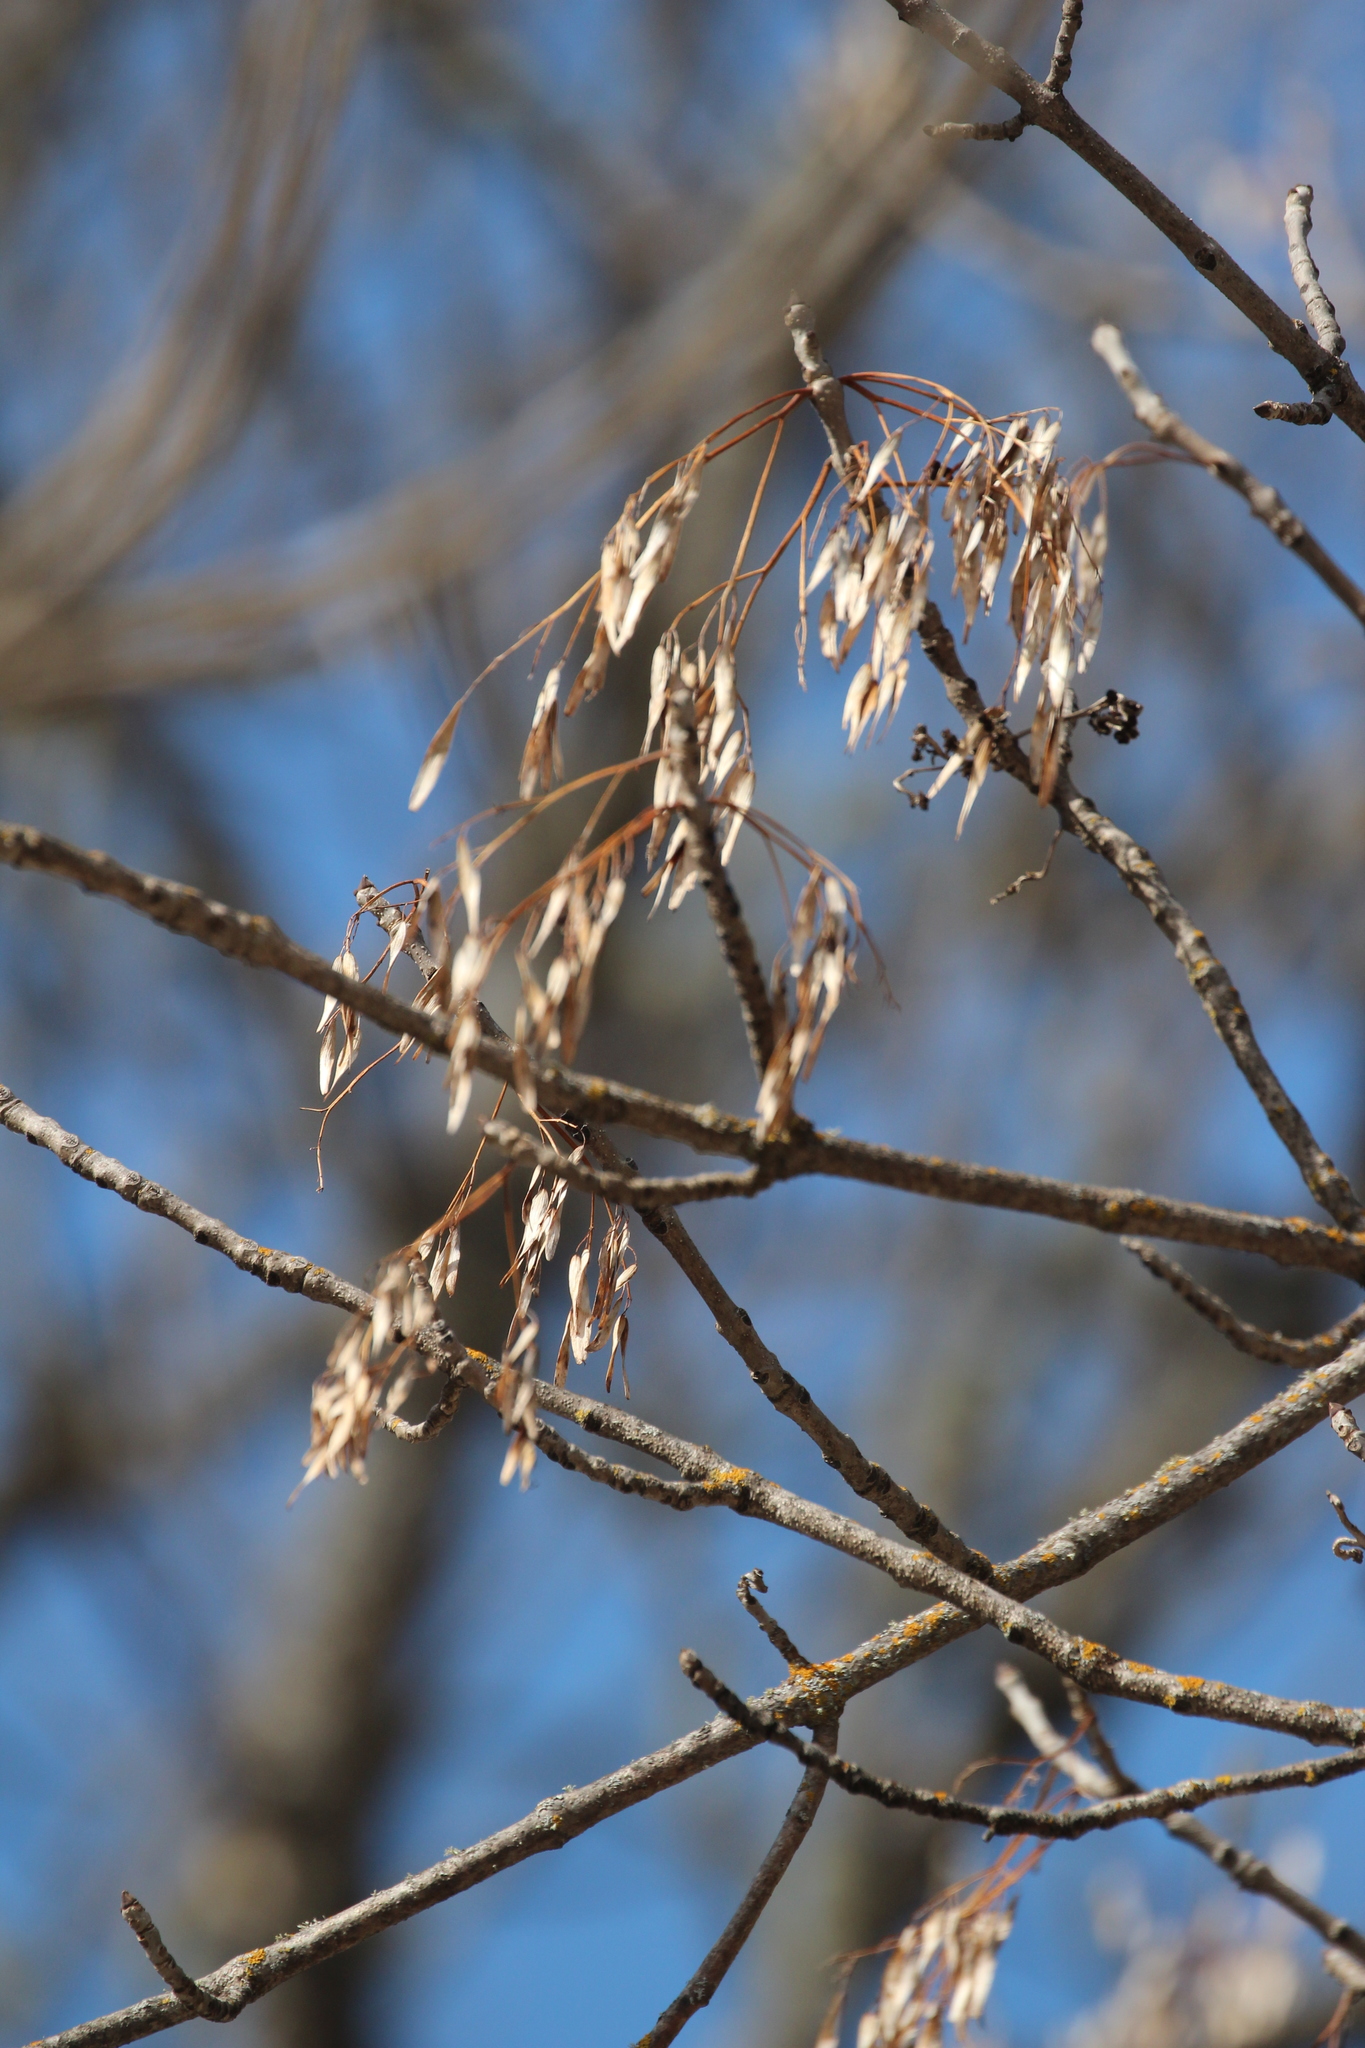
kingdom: Plantae
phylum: Tracheophyta
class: Magnoliopsida
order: Lamiales
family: Oleaceae
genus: Fraxinus
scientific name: Fraxinus nigra
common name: Black ash
